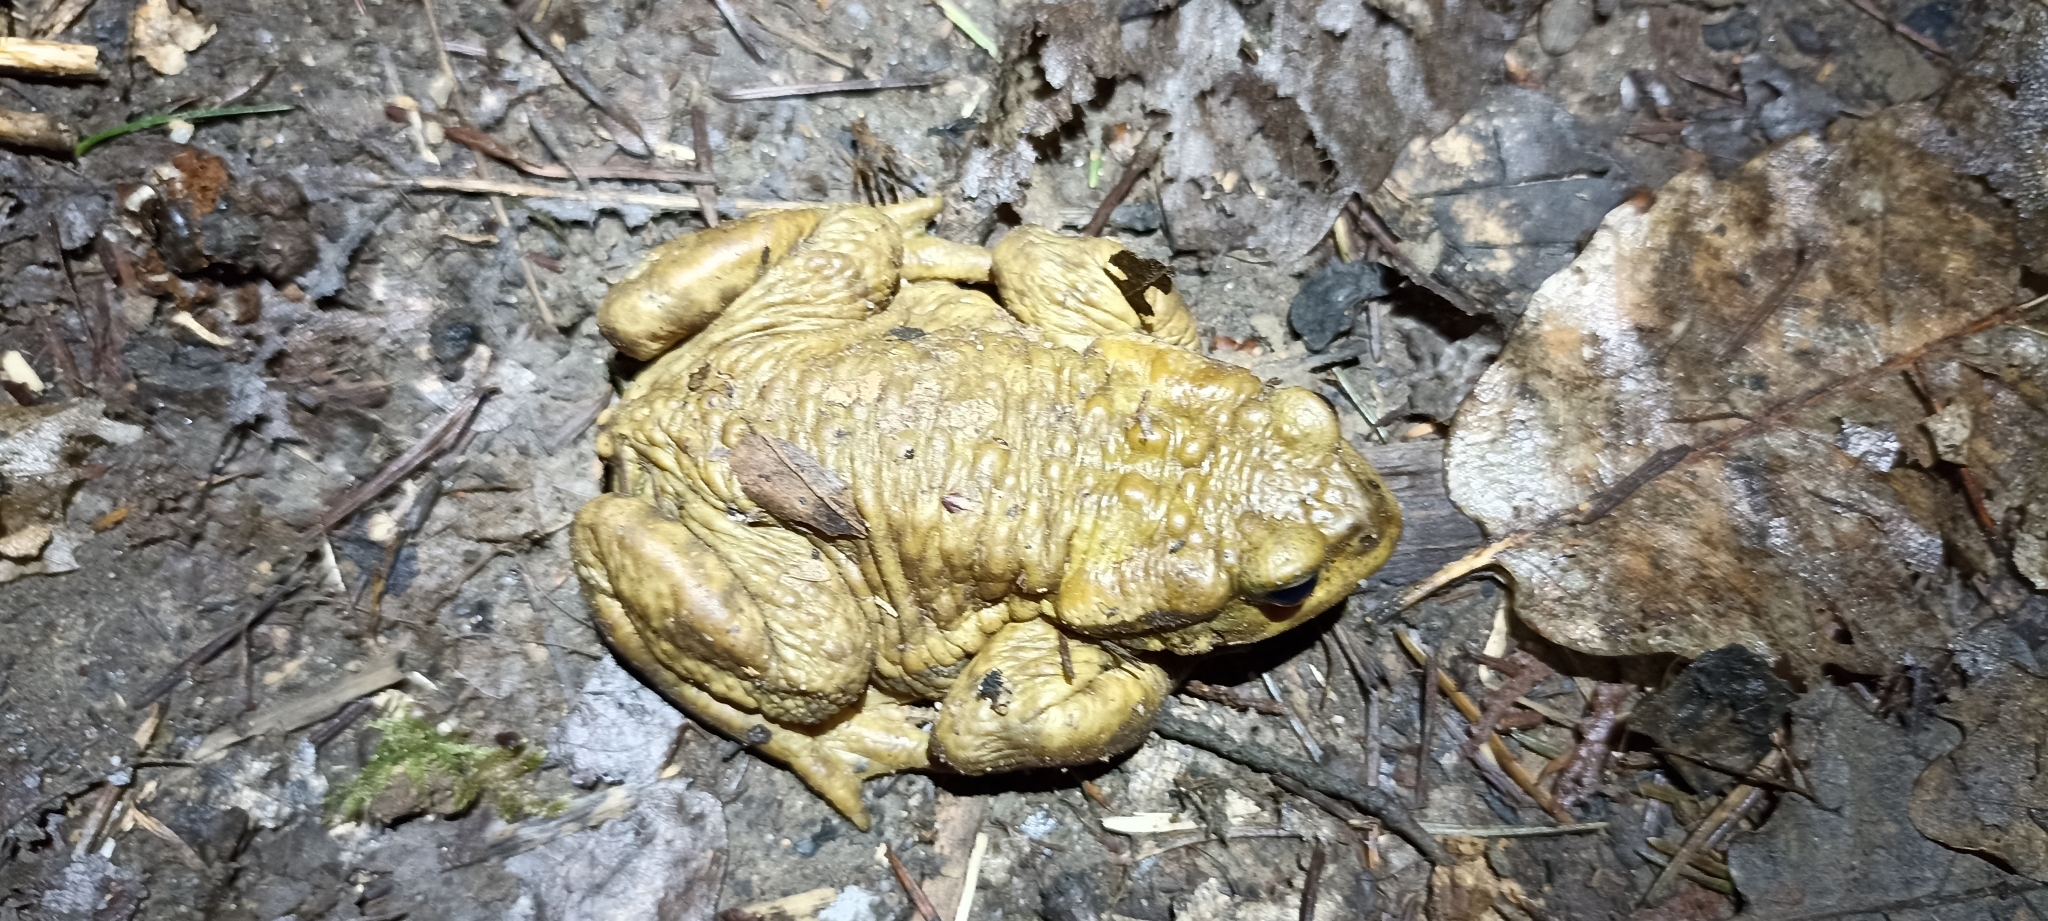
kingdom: Animalia
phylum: Chordata
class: Amphibia
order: Anura
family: Bufonidae
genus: Bufo
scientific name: Bufo spinosus
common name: Western common toad
